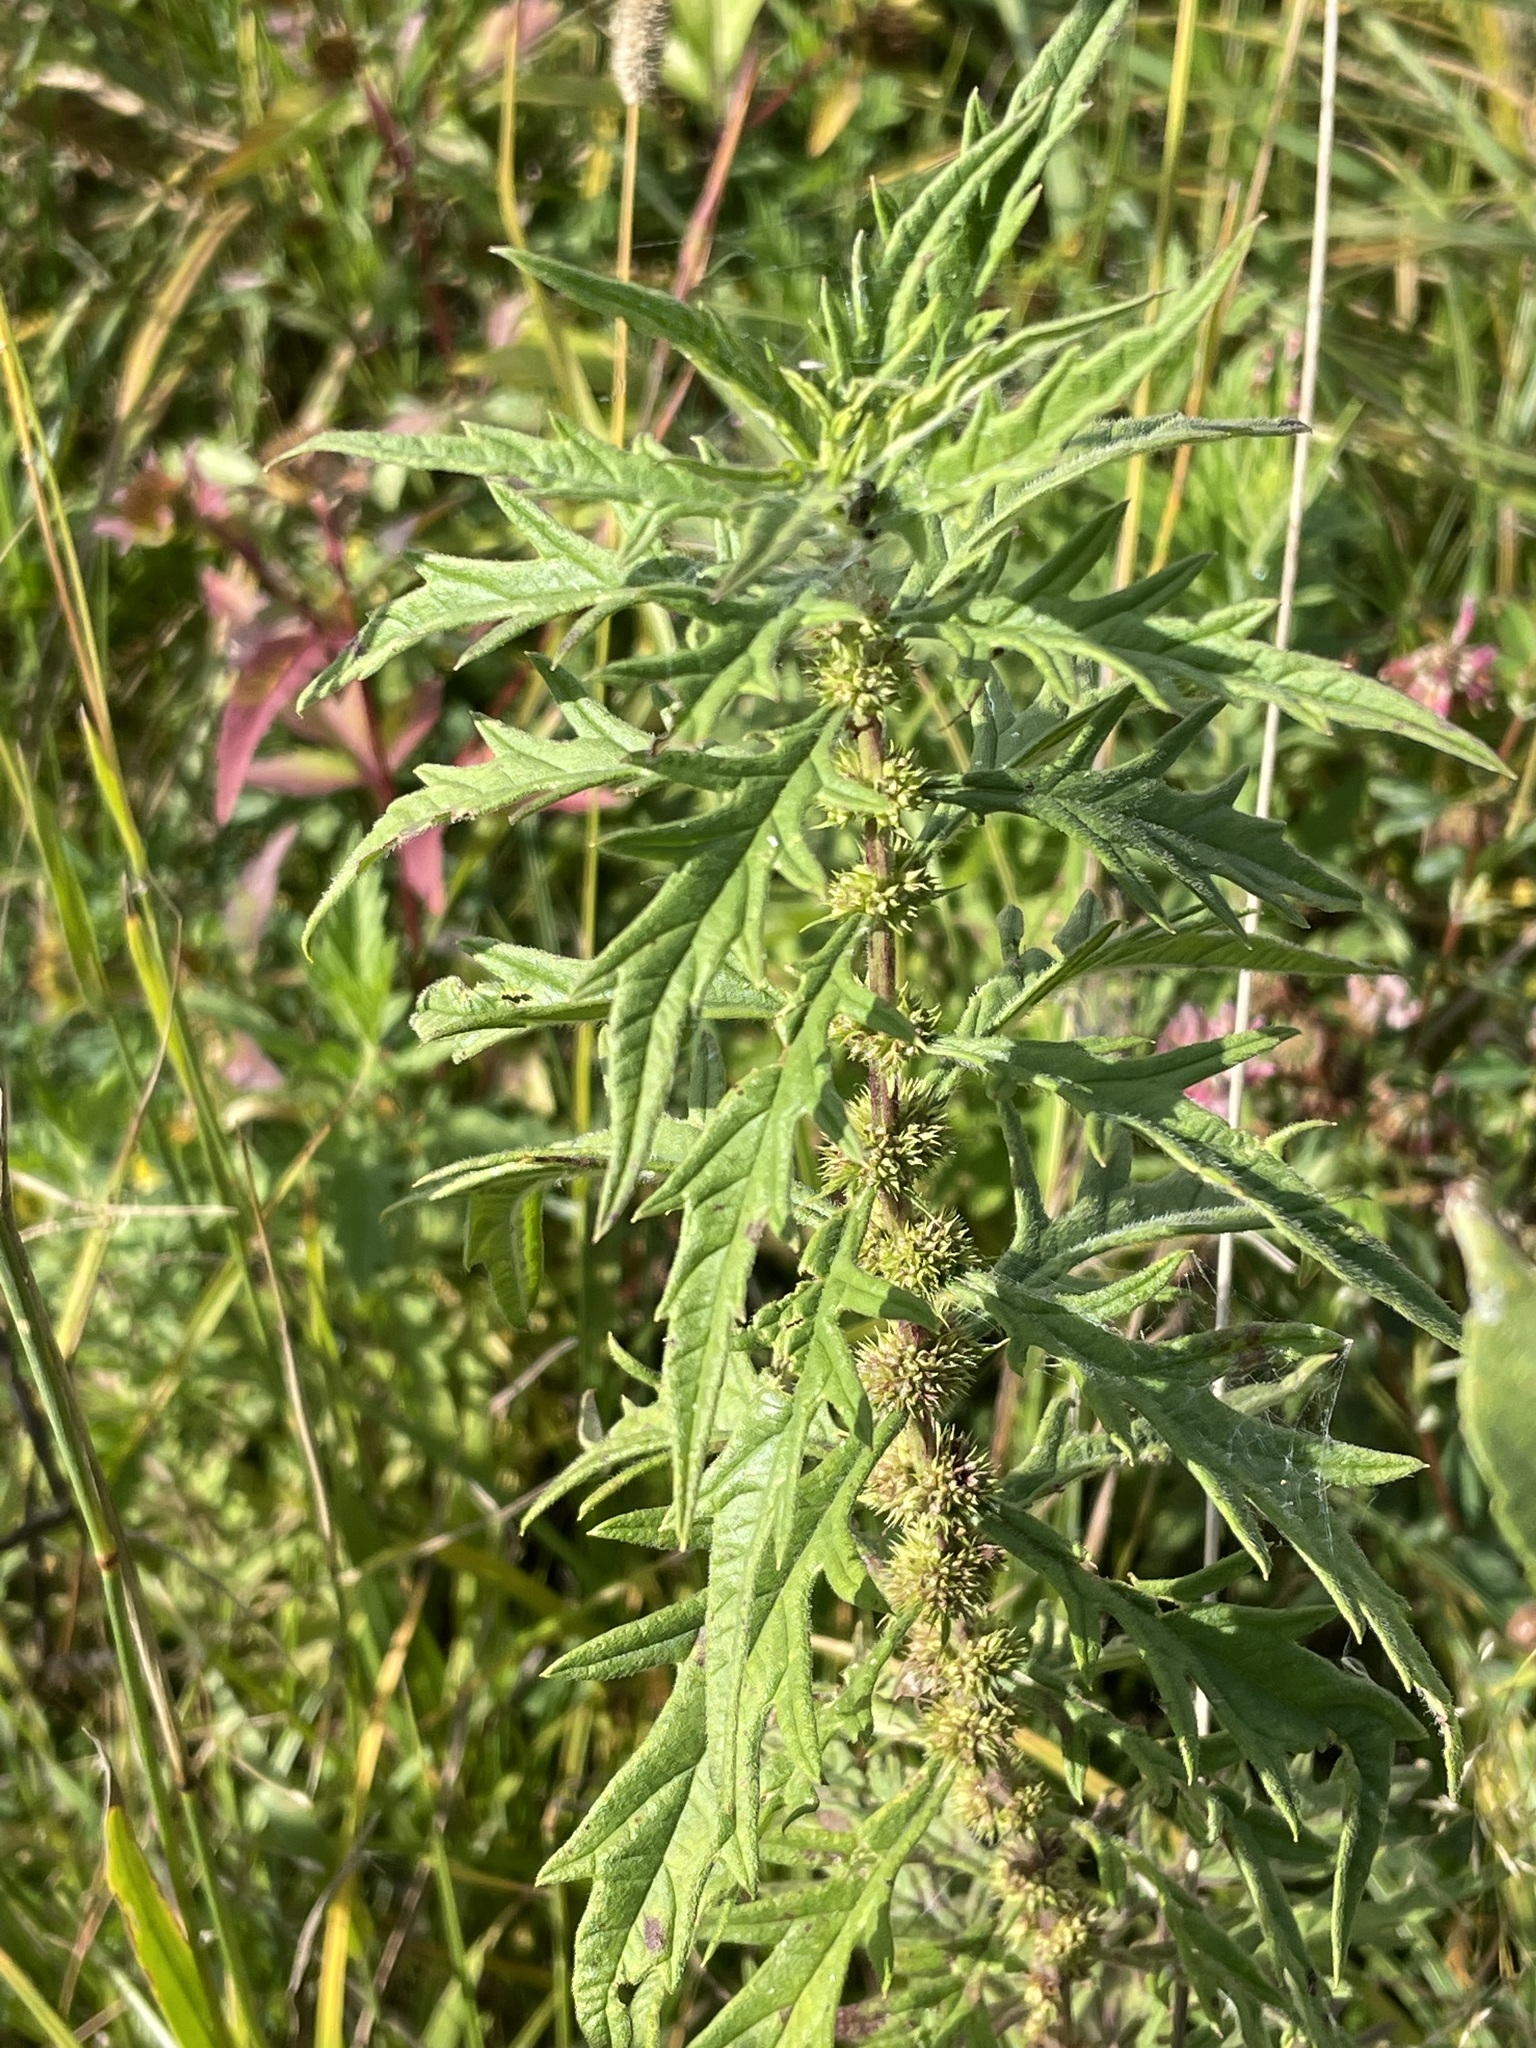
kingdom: Plantae
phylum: Tracheophyta
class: Magnoliopsida
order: Lamiales
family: Lamiaceae
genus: Lycopus
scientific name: Lycopus exaltatus
